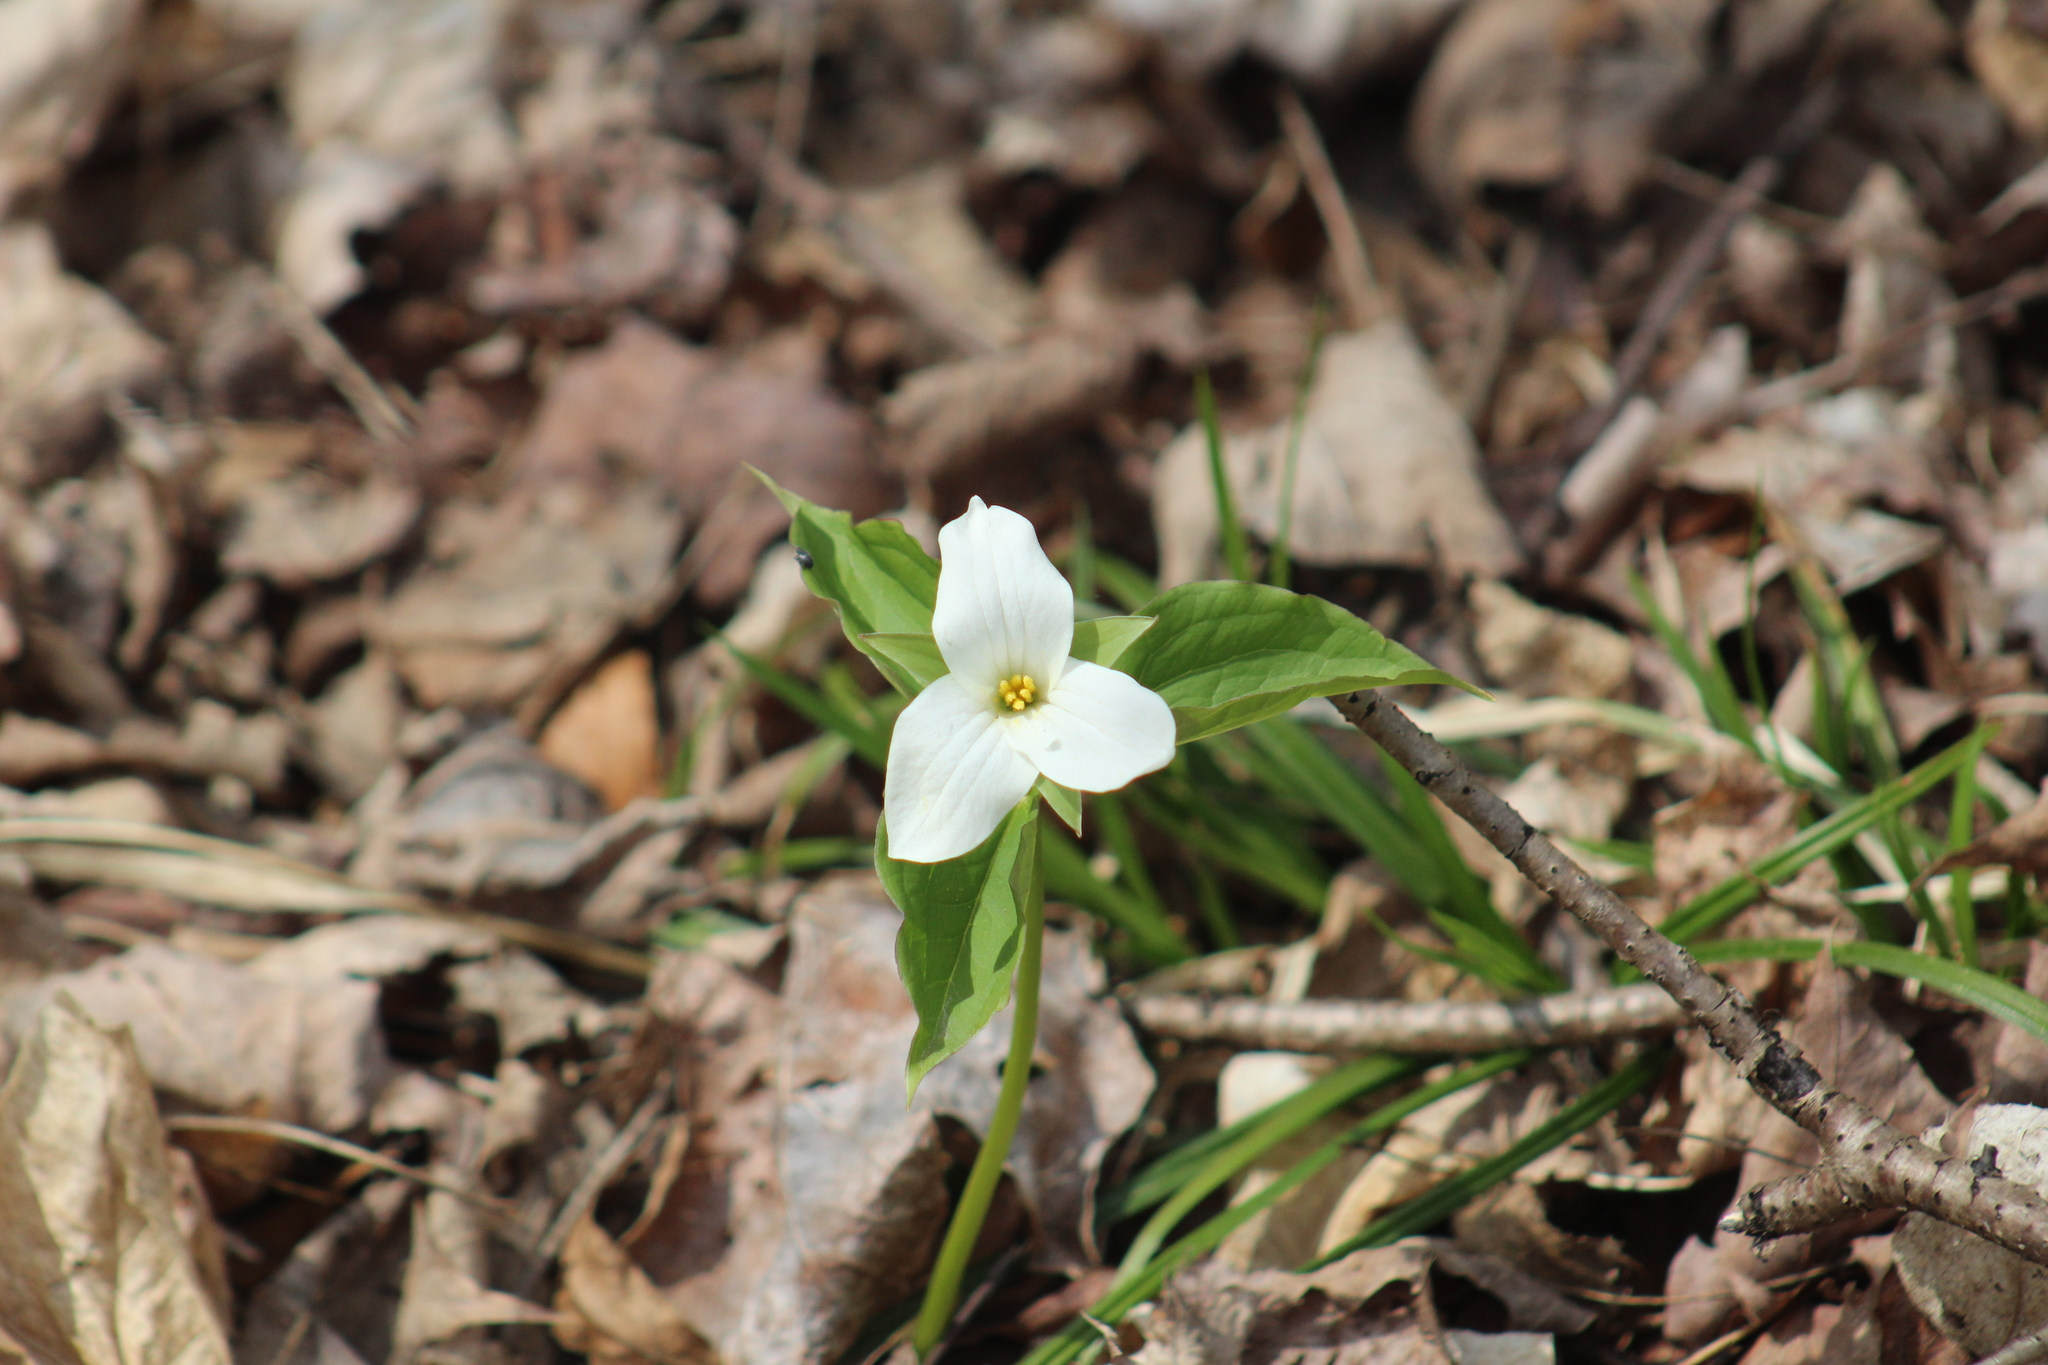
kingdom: Plantae
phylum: Tracheophyta
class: Liliopsida
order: Liliales
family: Melanthiaceae
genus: Trillium
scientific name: Trillium grandiflorum
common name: Great white trillium
